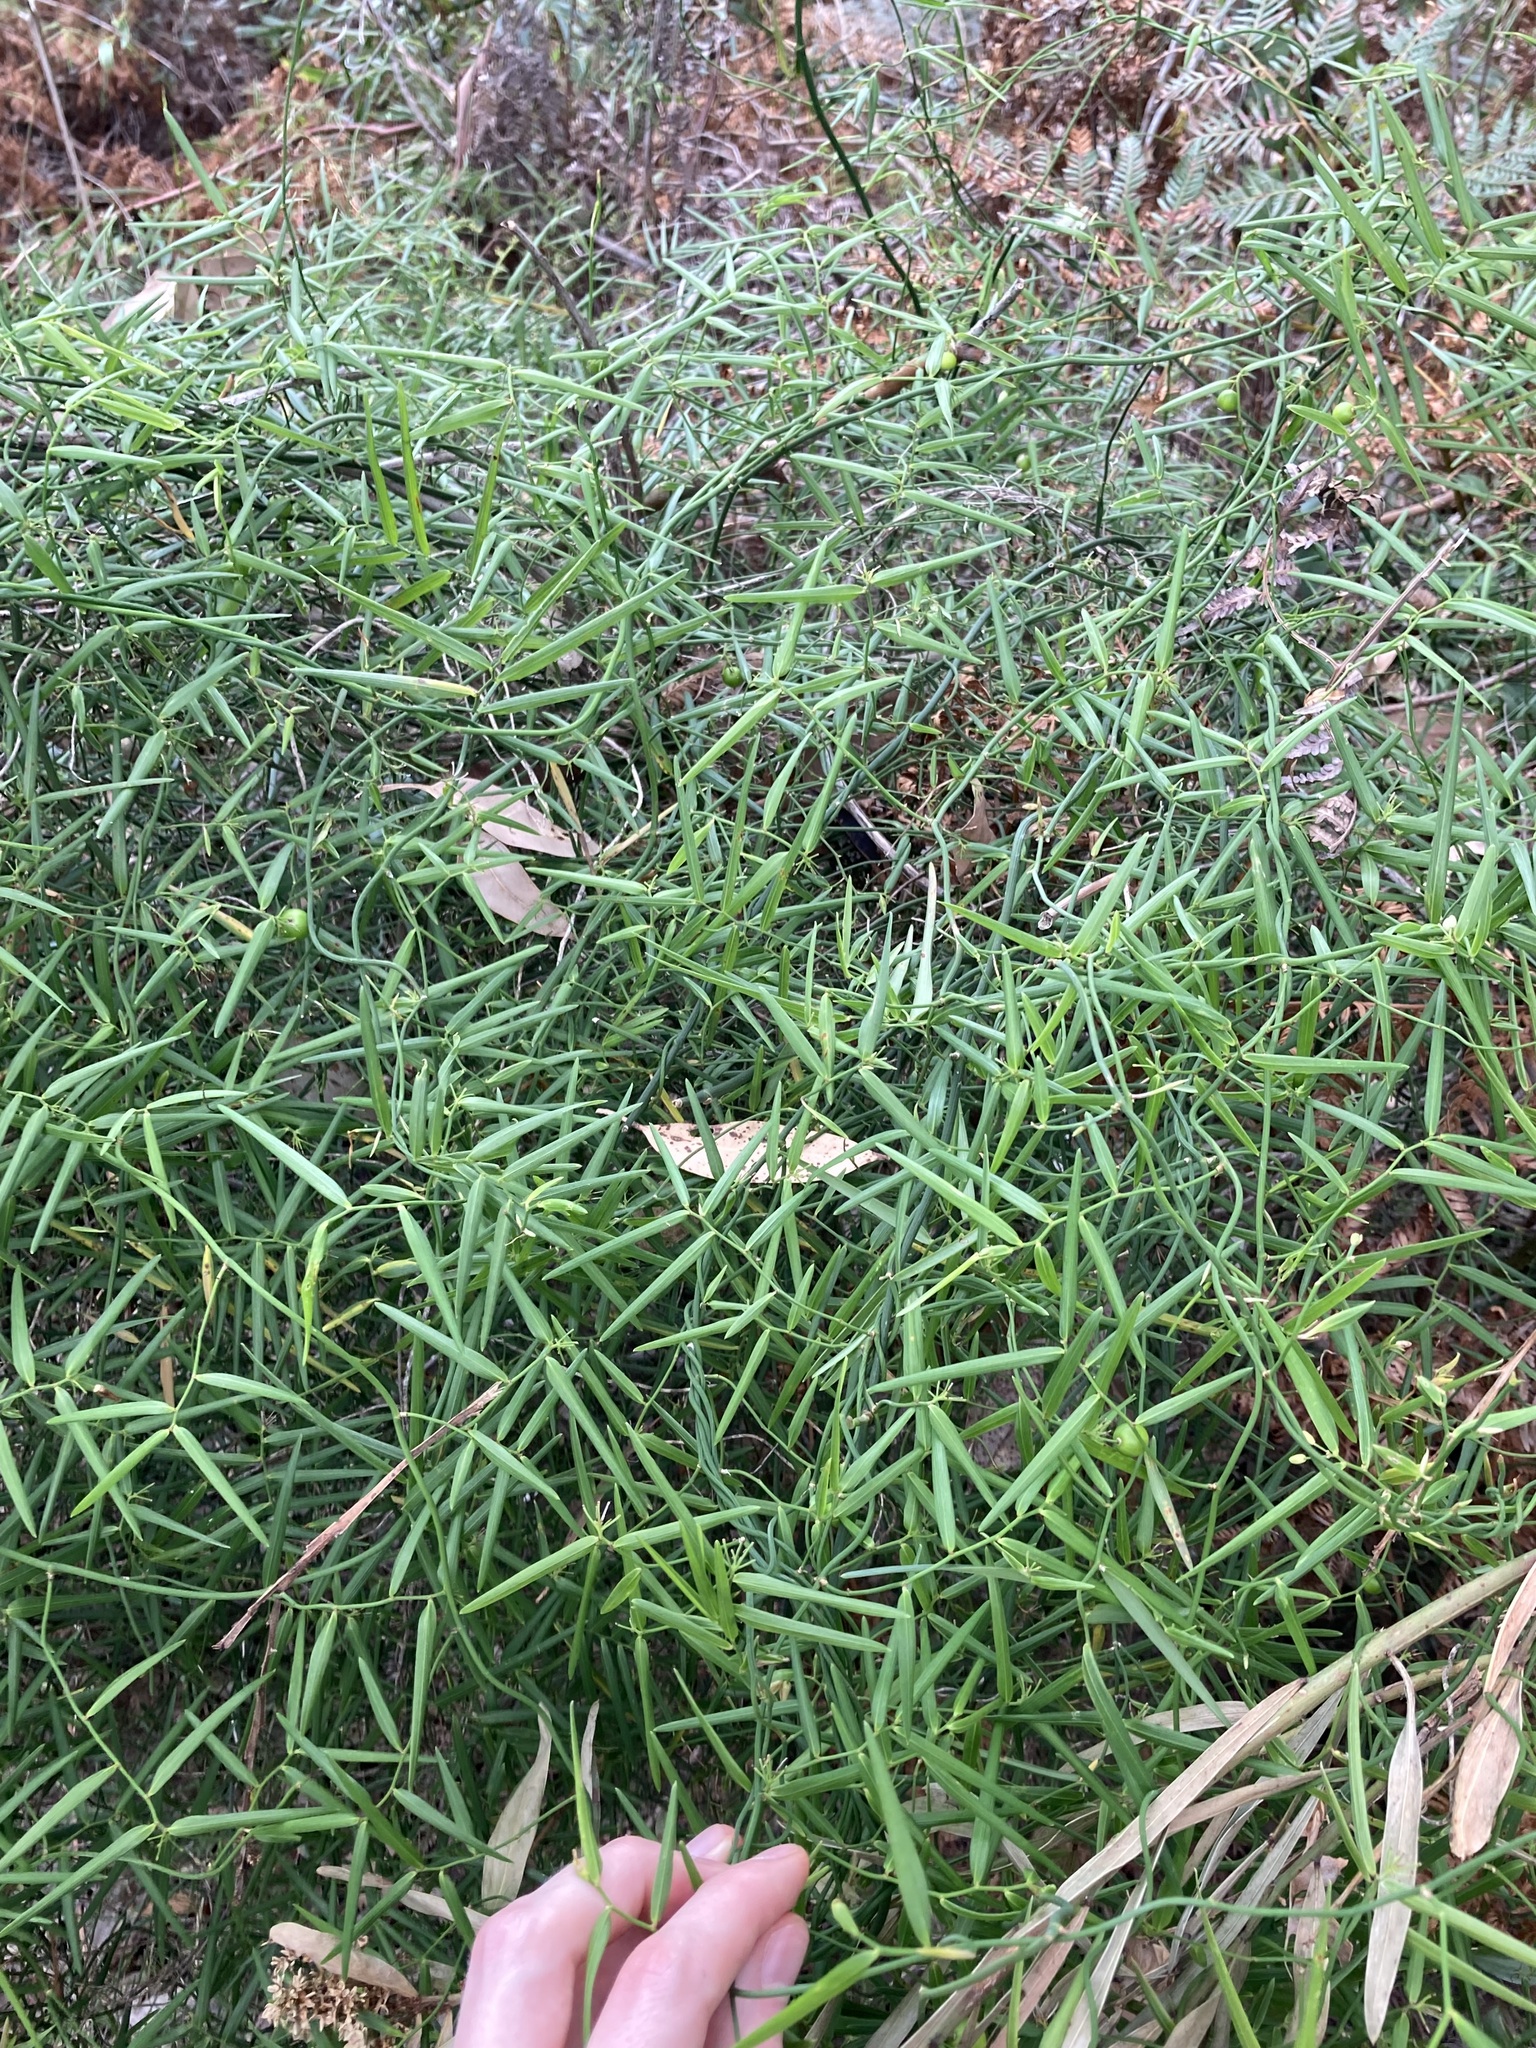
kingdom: Plantae
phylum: Tracheophyta
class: Liliopsida
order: Asparagales
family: Asphodelaceae
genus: Geitonoplesium
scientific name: Geitonoplesium cymosum
